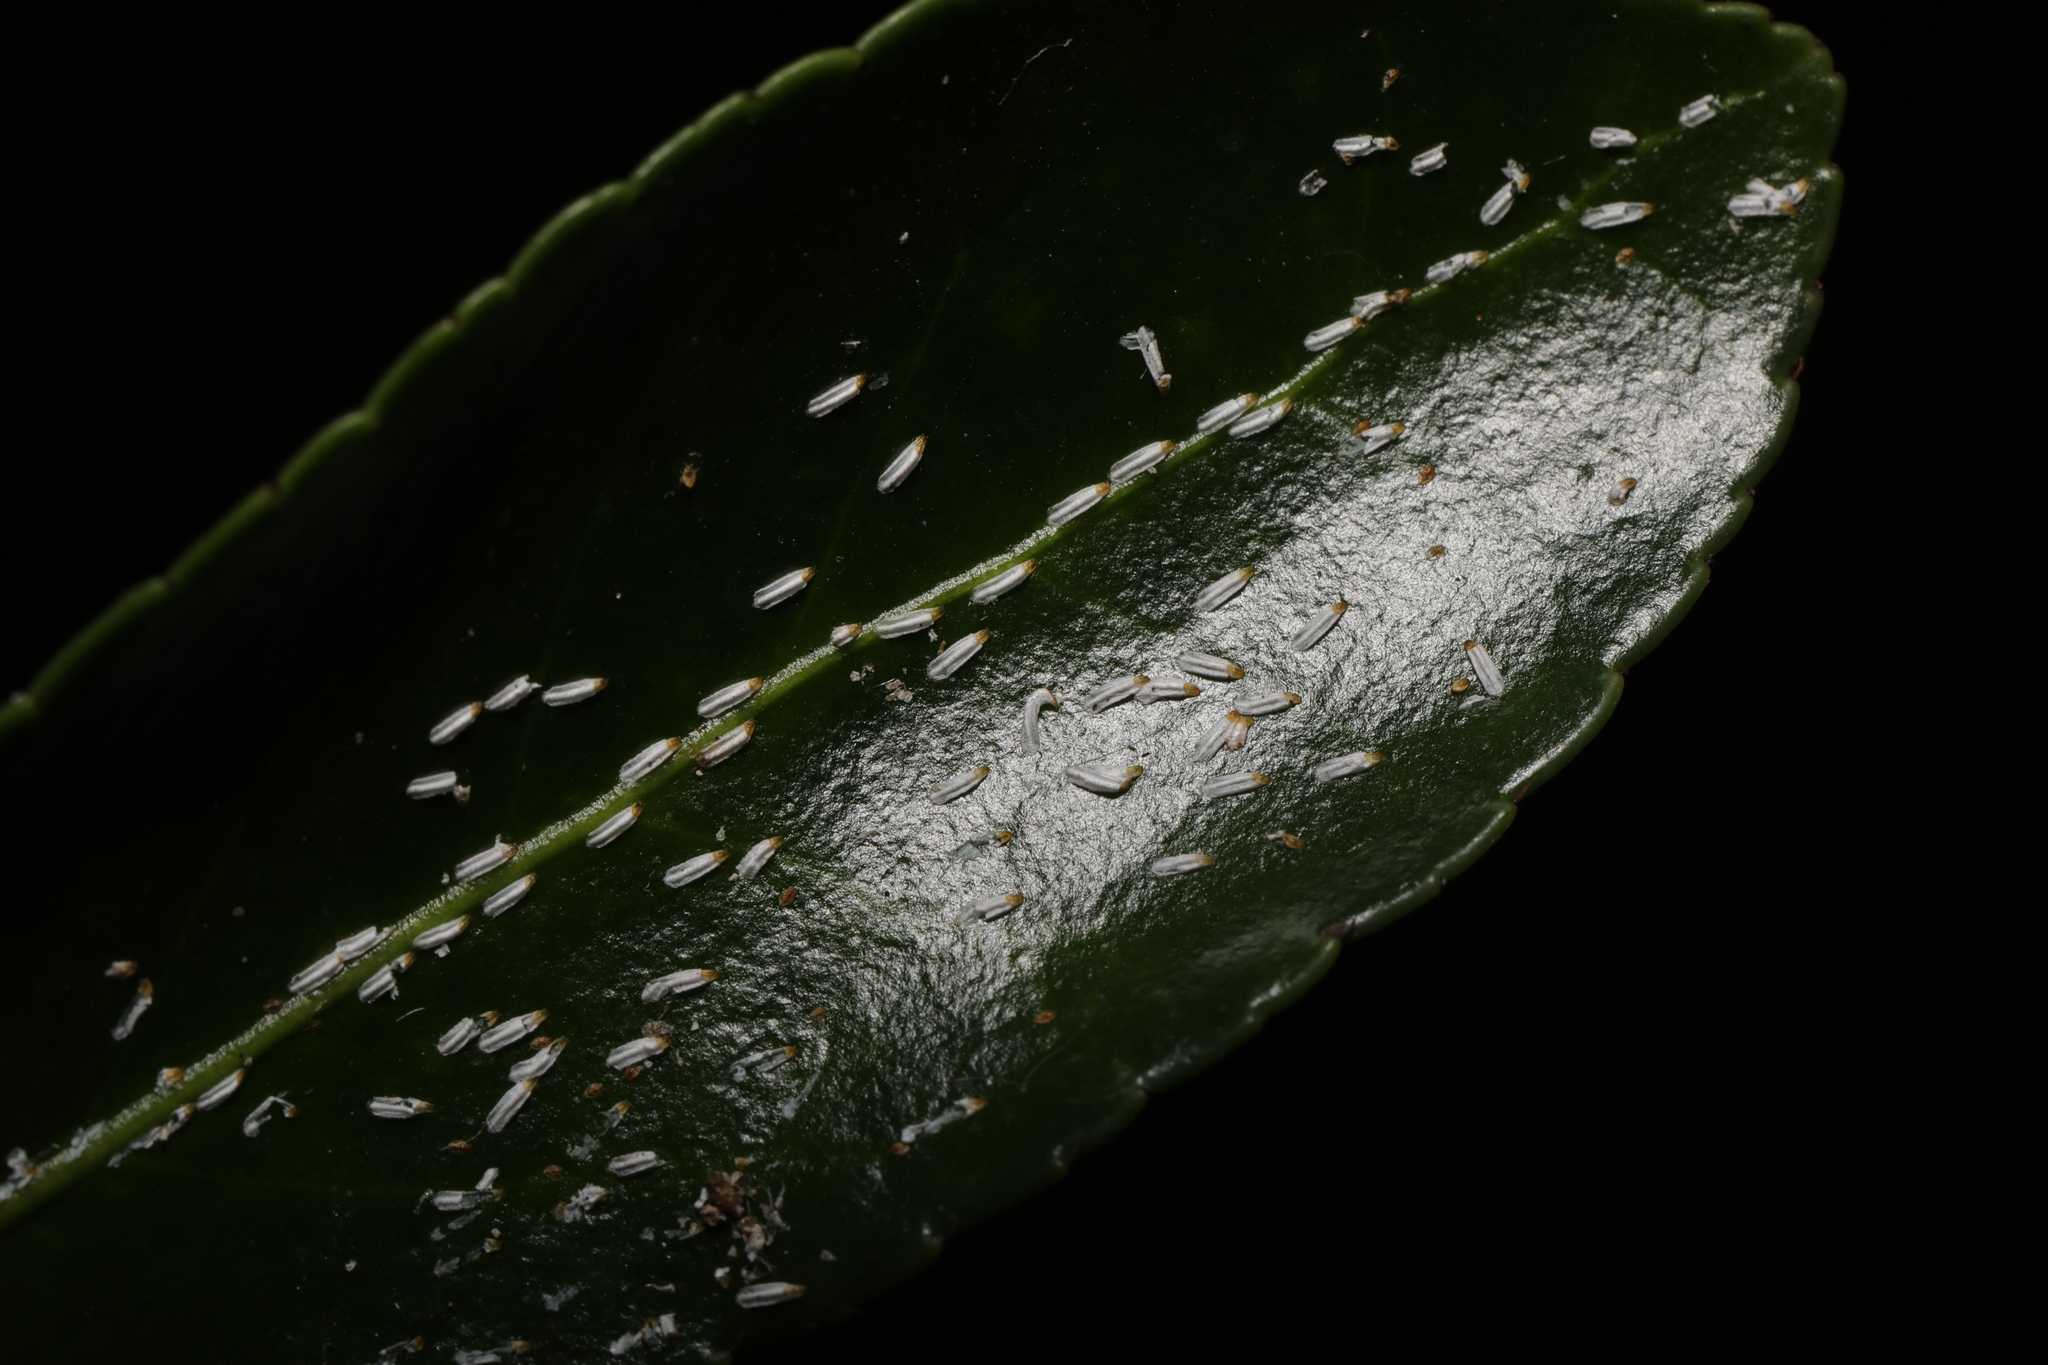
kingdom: Animalia
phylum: Arthropoda
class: Insecta
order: Hemiptera
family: Diaspididae
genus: Unaspis
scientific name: Unaspis euonymi
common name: Euonymus scale
